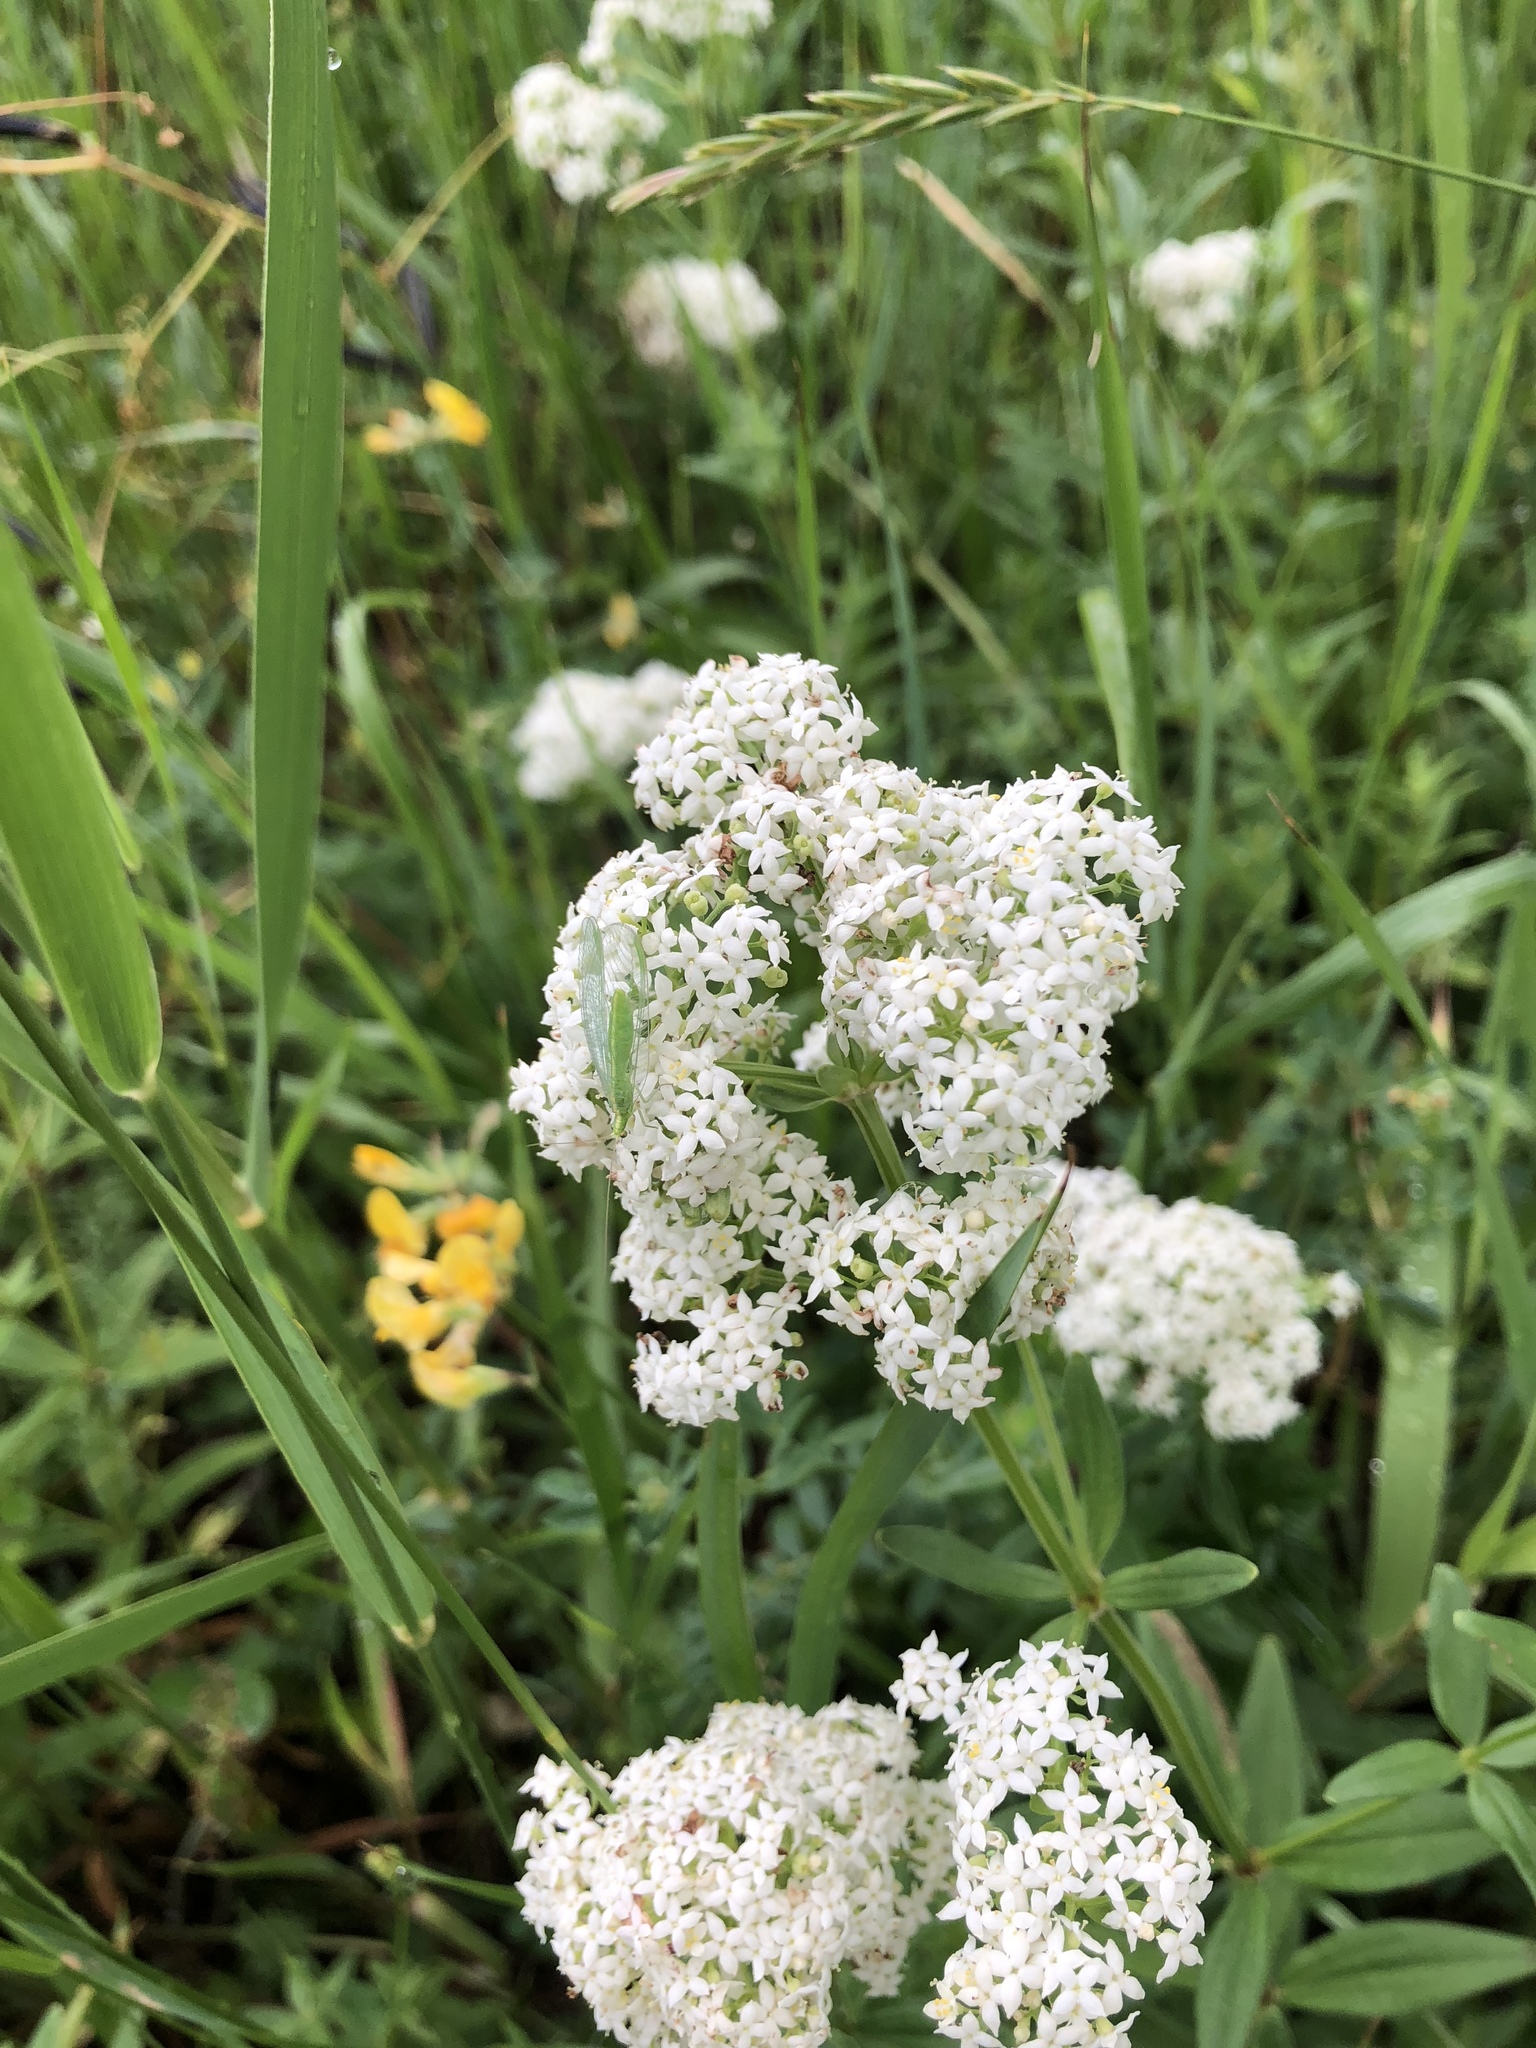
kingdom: Plantae
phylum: Tracheophyta
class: Magnoliopsida
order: Gentianales
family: Rubiaceae
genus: Galium
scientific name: Galium boreale
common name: Northern bedstraw
